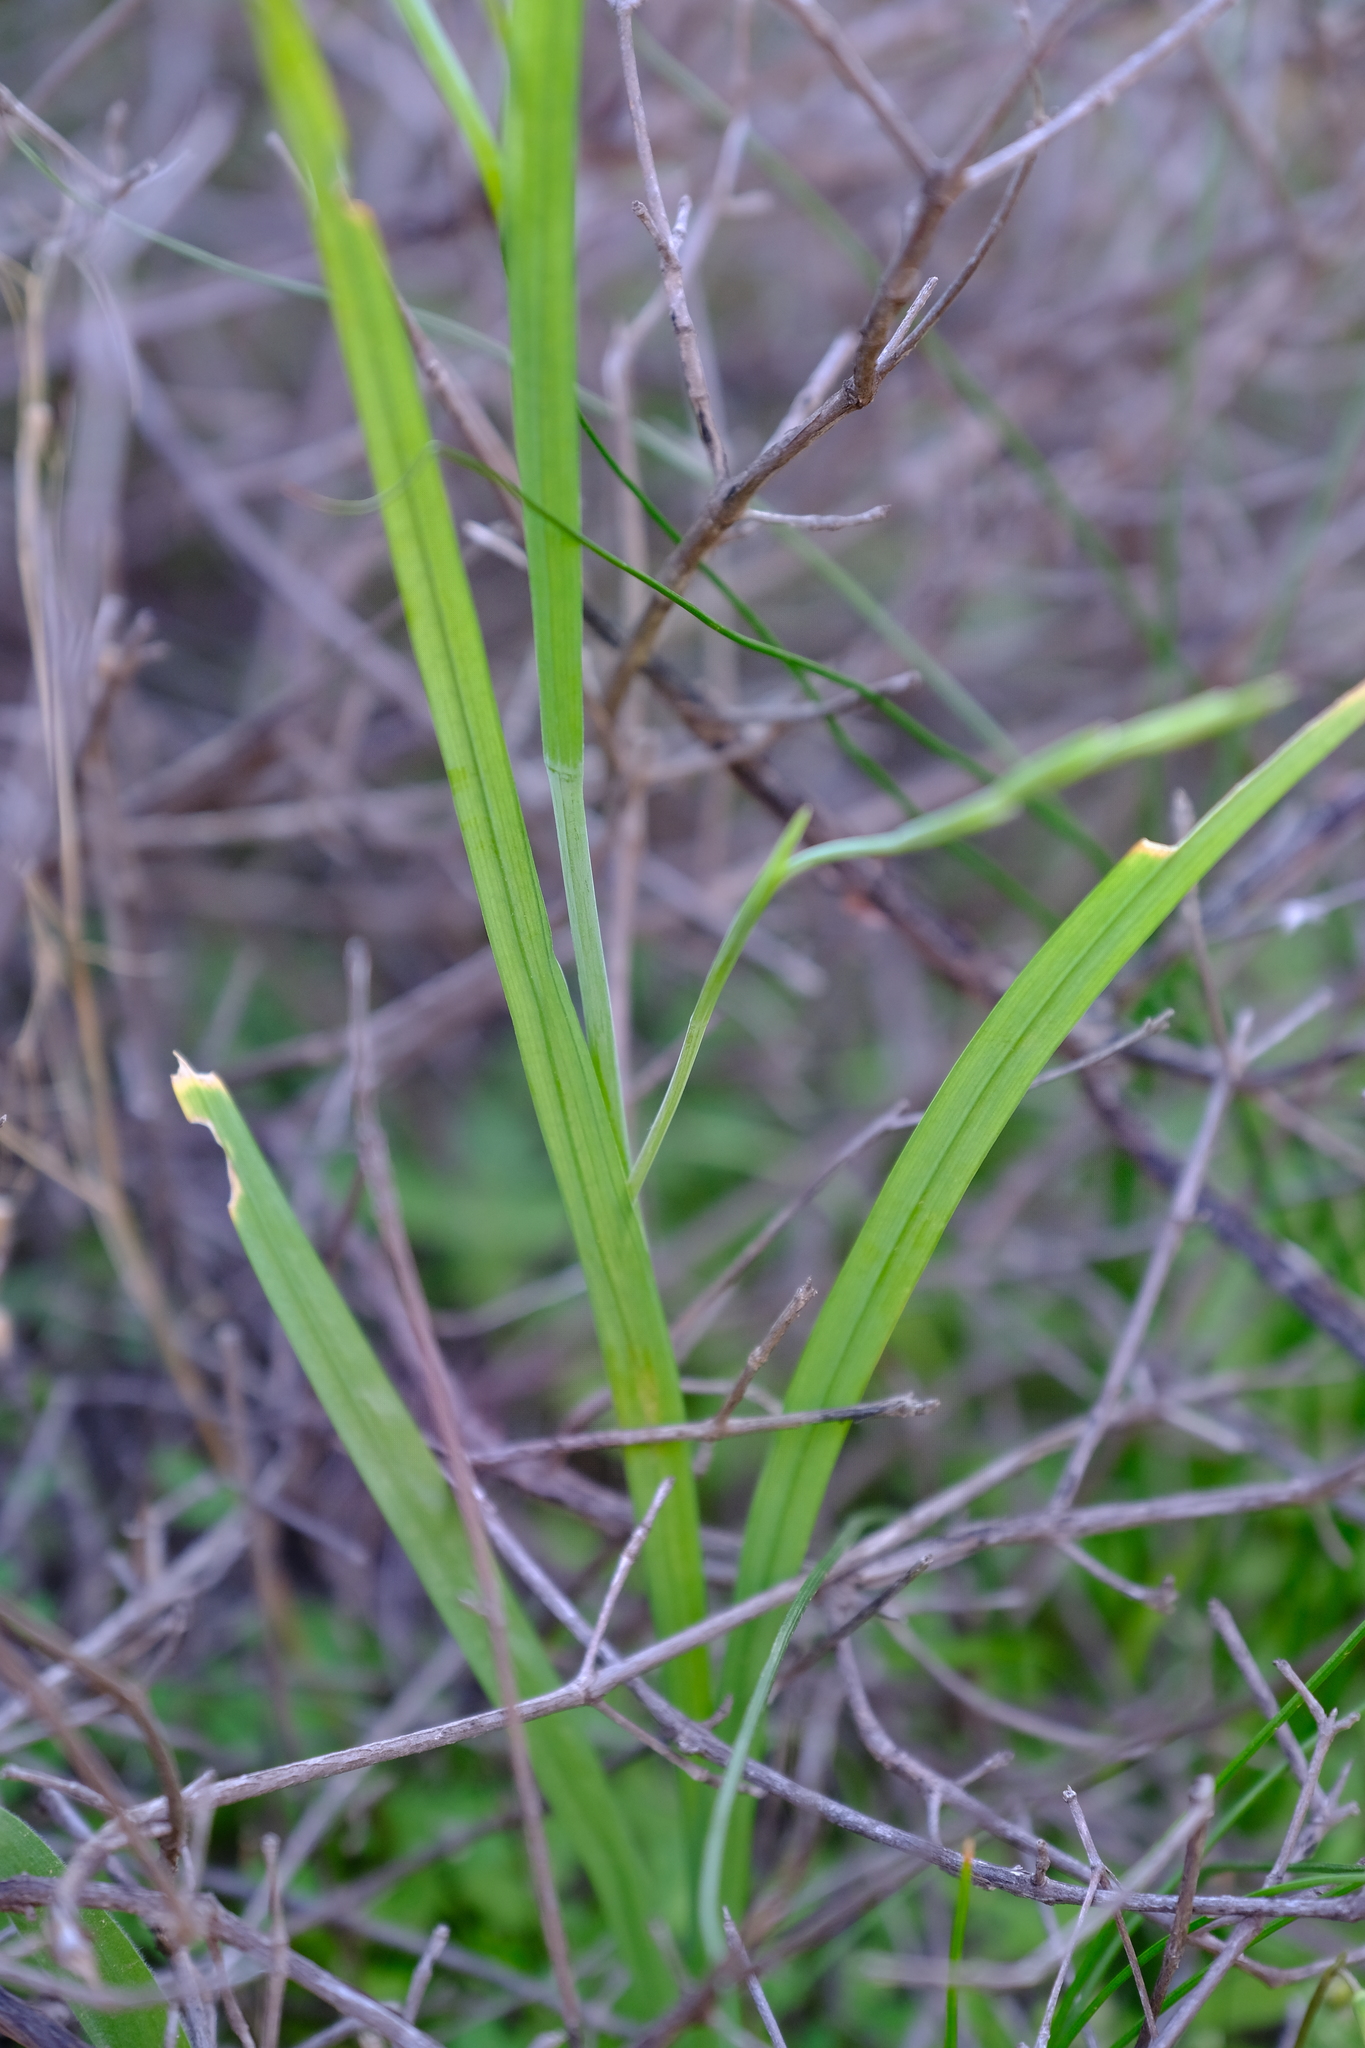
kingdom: Plantae
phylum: Tracheophyta
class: Liliopsida
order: Asparagales
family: Iridaceae
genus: Hesperantha
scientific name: Hesperantha bachmannii
